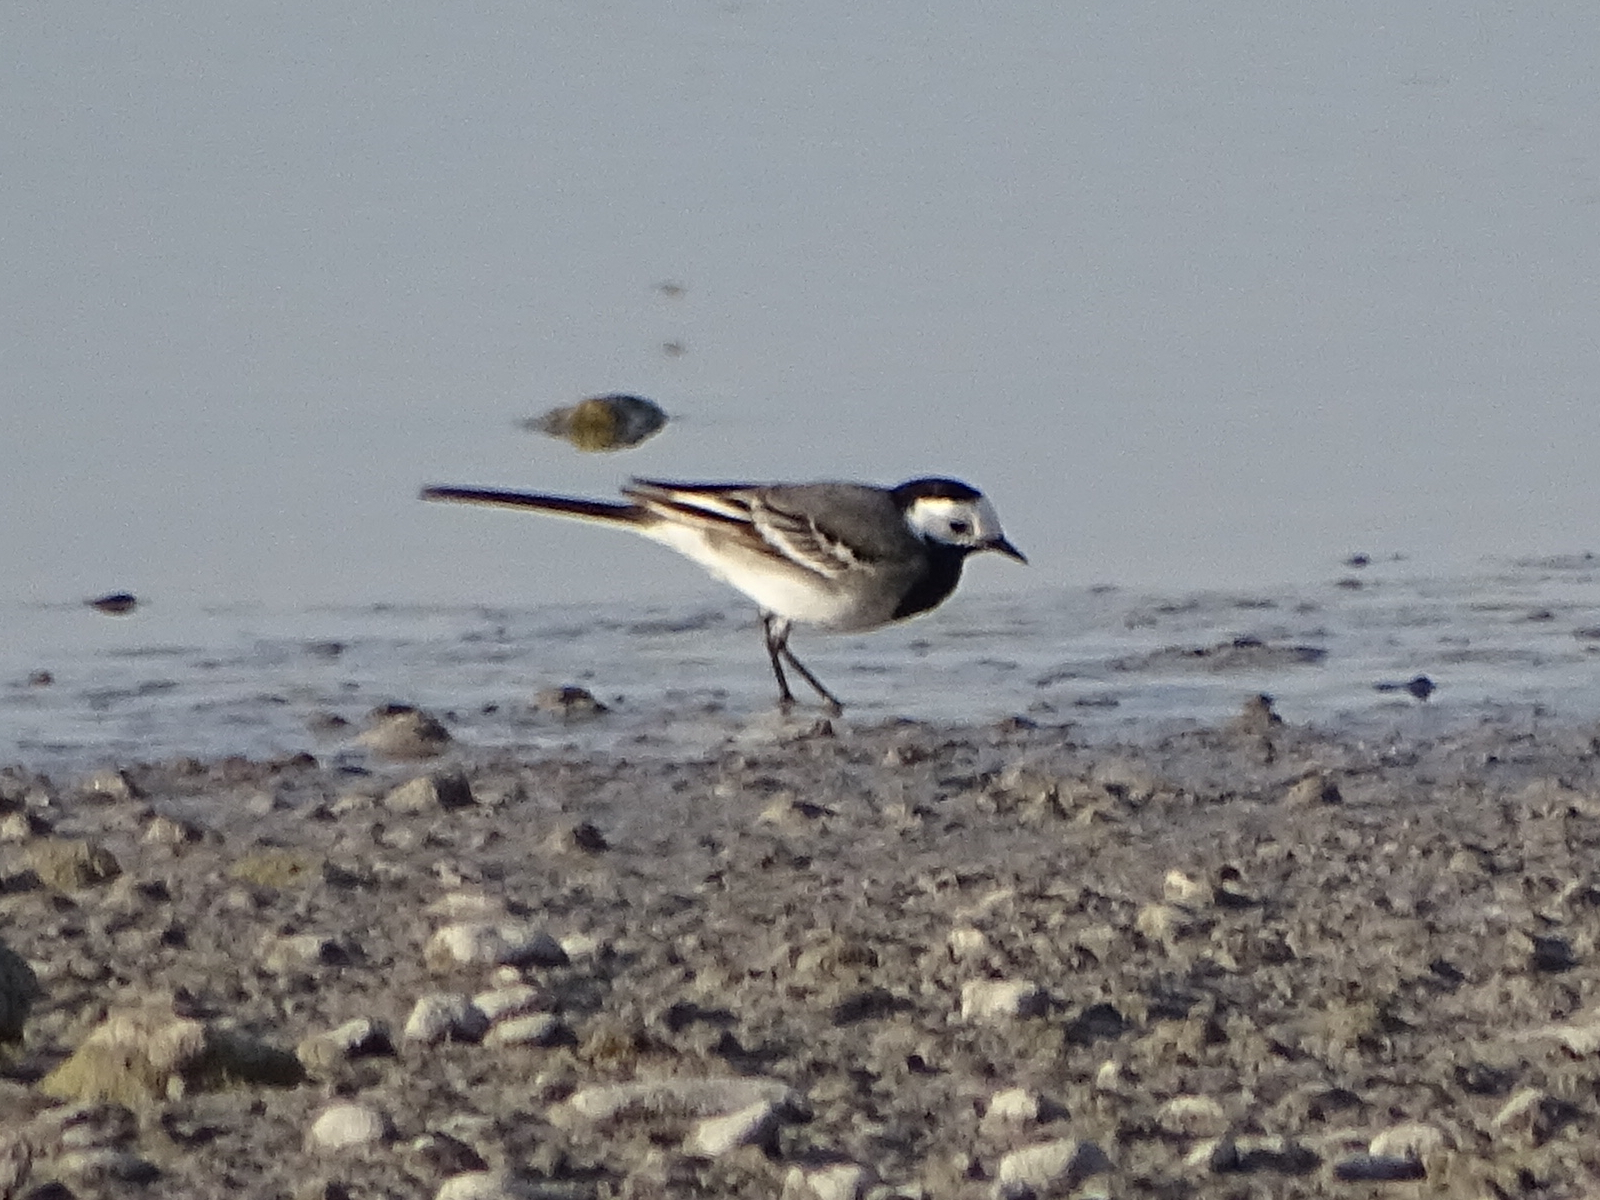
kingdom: Animalia
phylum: Chordata
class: Aves
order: Passeriformes
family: Motacillidae
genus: Motacilla
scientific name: Motacilla alba
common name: White wagtail
